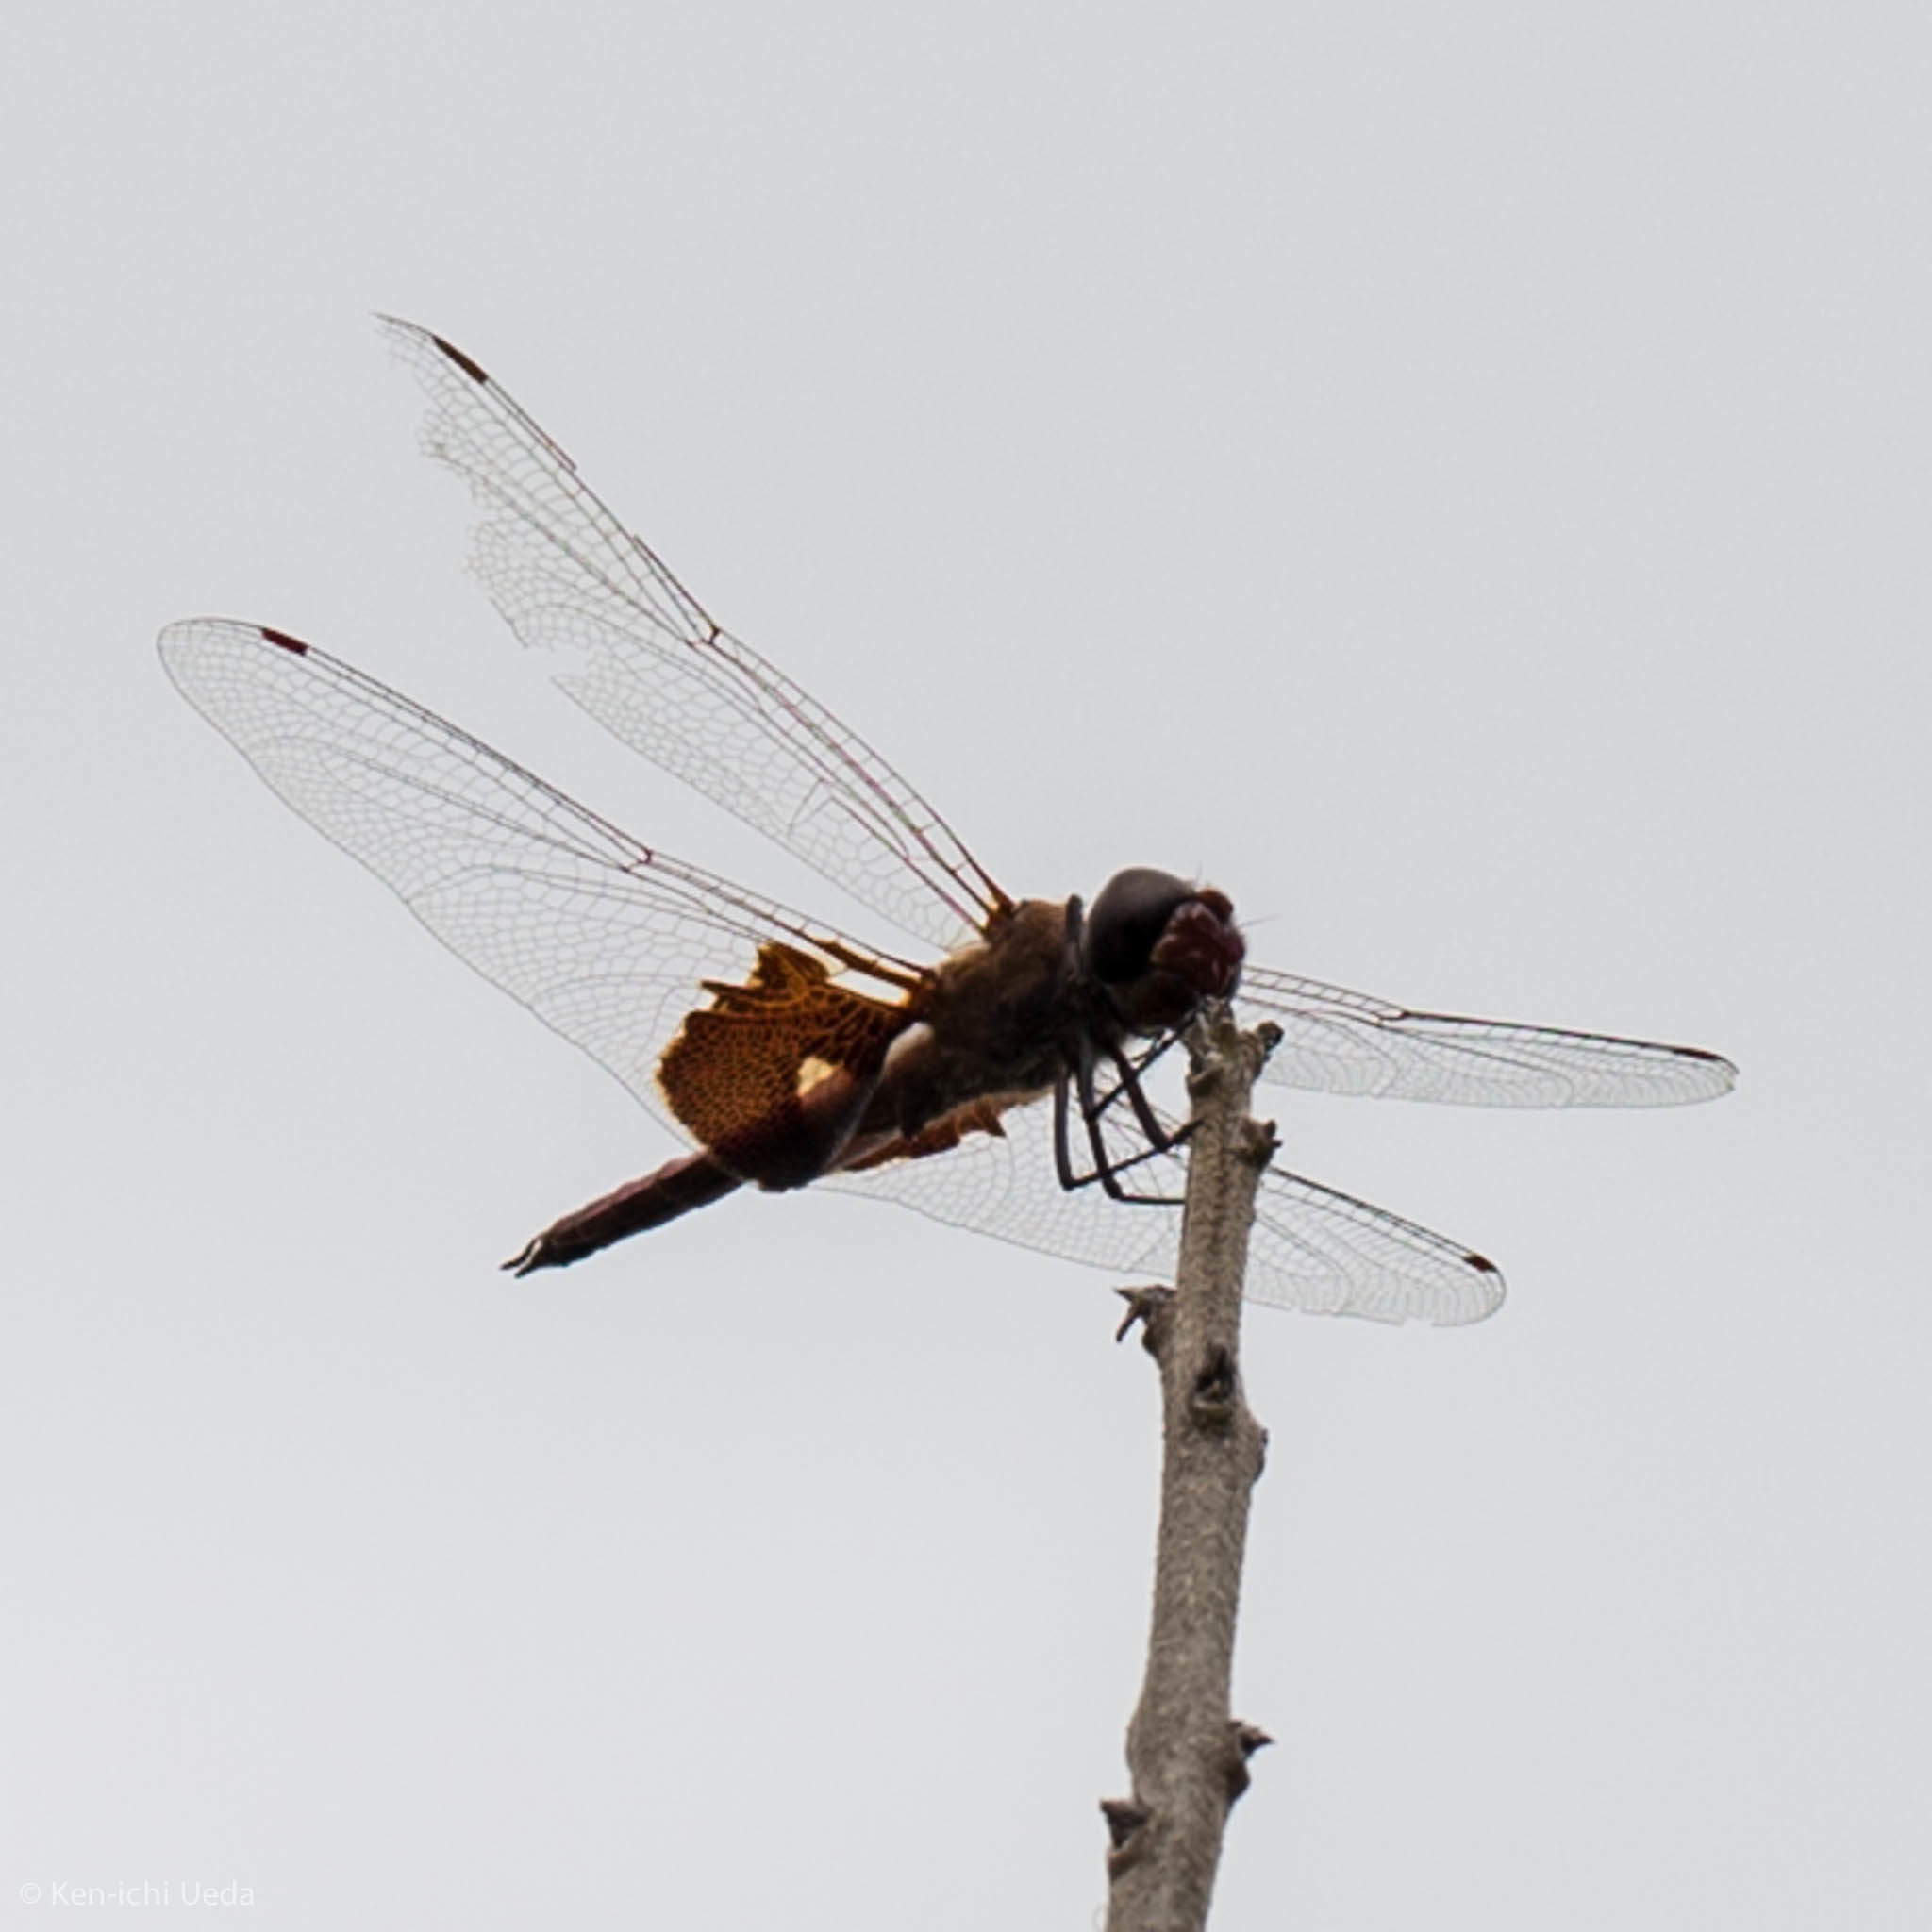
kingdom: Animalia
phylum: Arthropoda
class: Insecta
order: Odonata
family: Libellulidae
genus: Tramea
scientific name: Tramea onusta
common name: Red saddlebags
